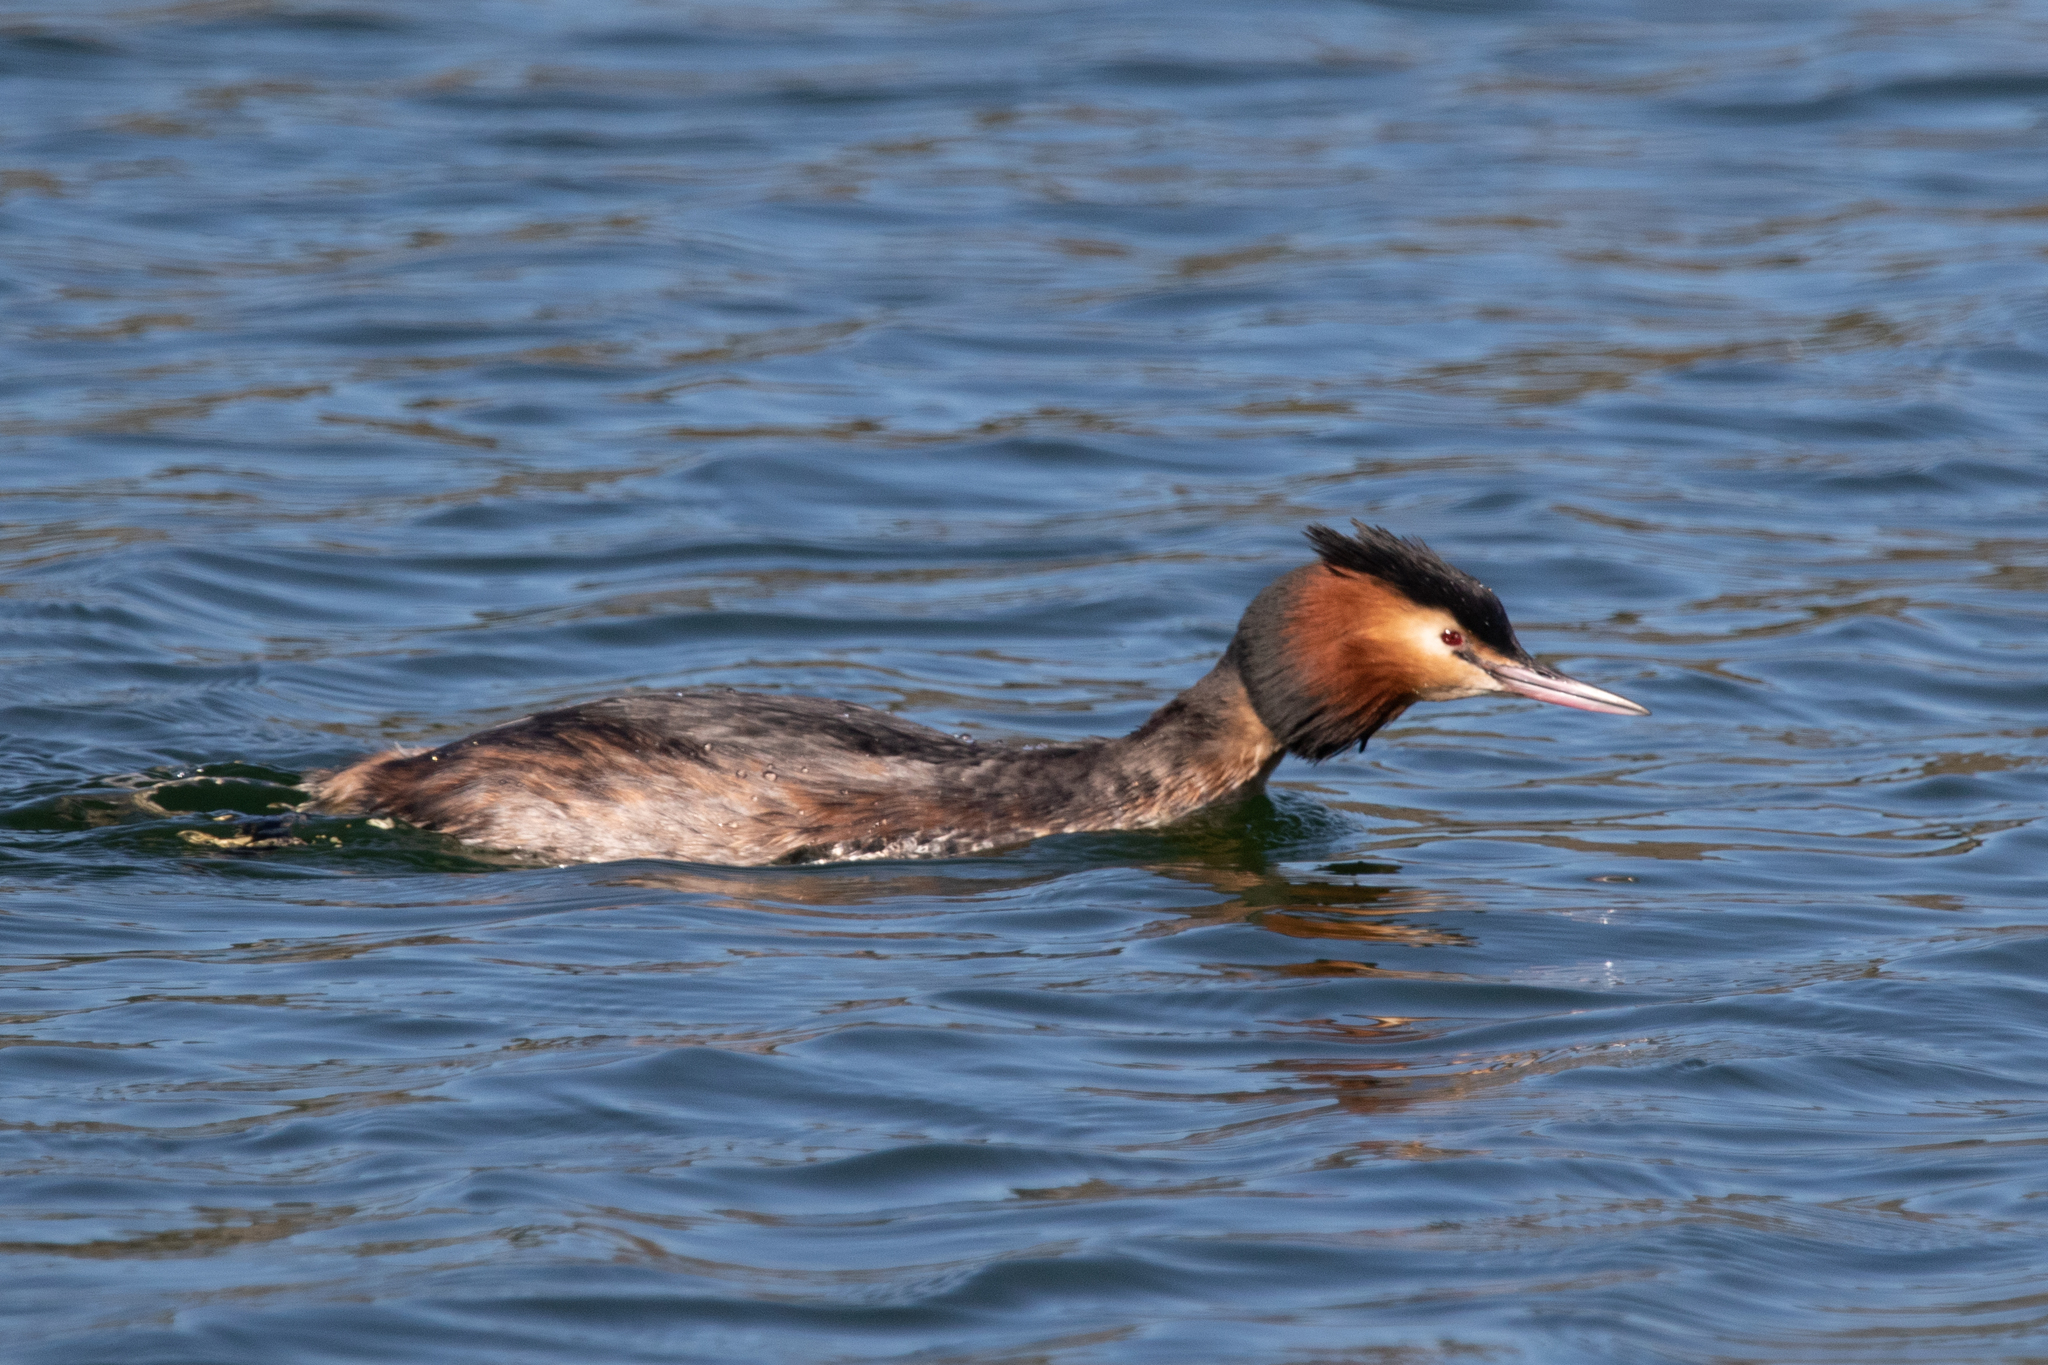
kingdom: Animalia
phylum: Chordata
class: Aves
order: Podicipediformes
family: Podicipedidae
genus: Podiceps
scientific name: Podiceps cristatus
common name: Great crested grebe
